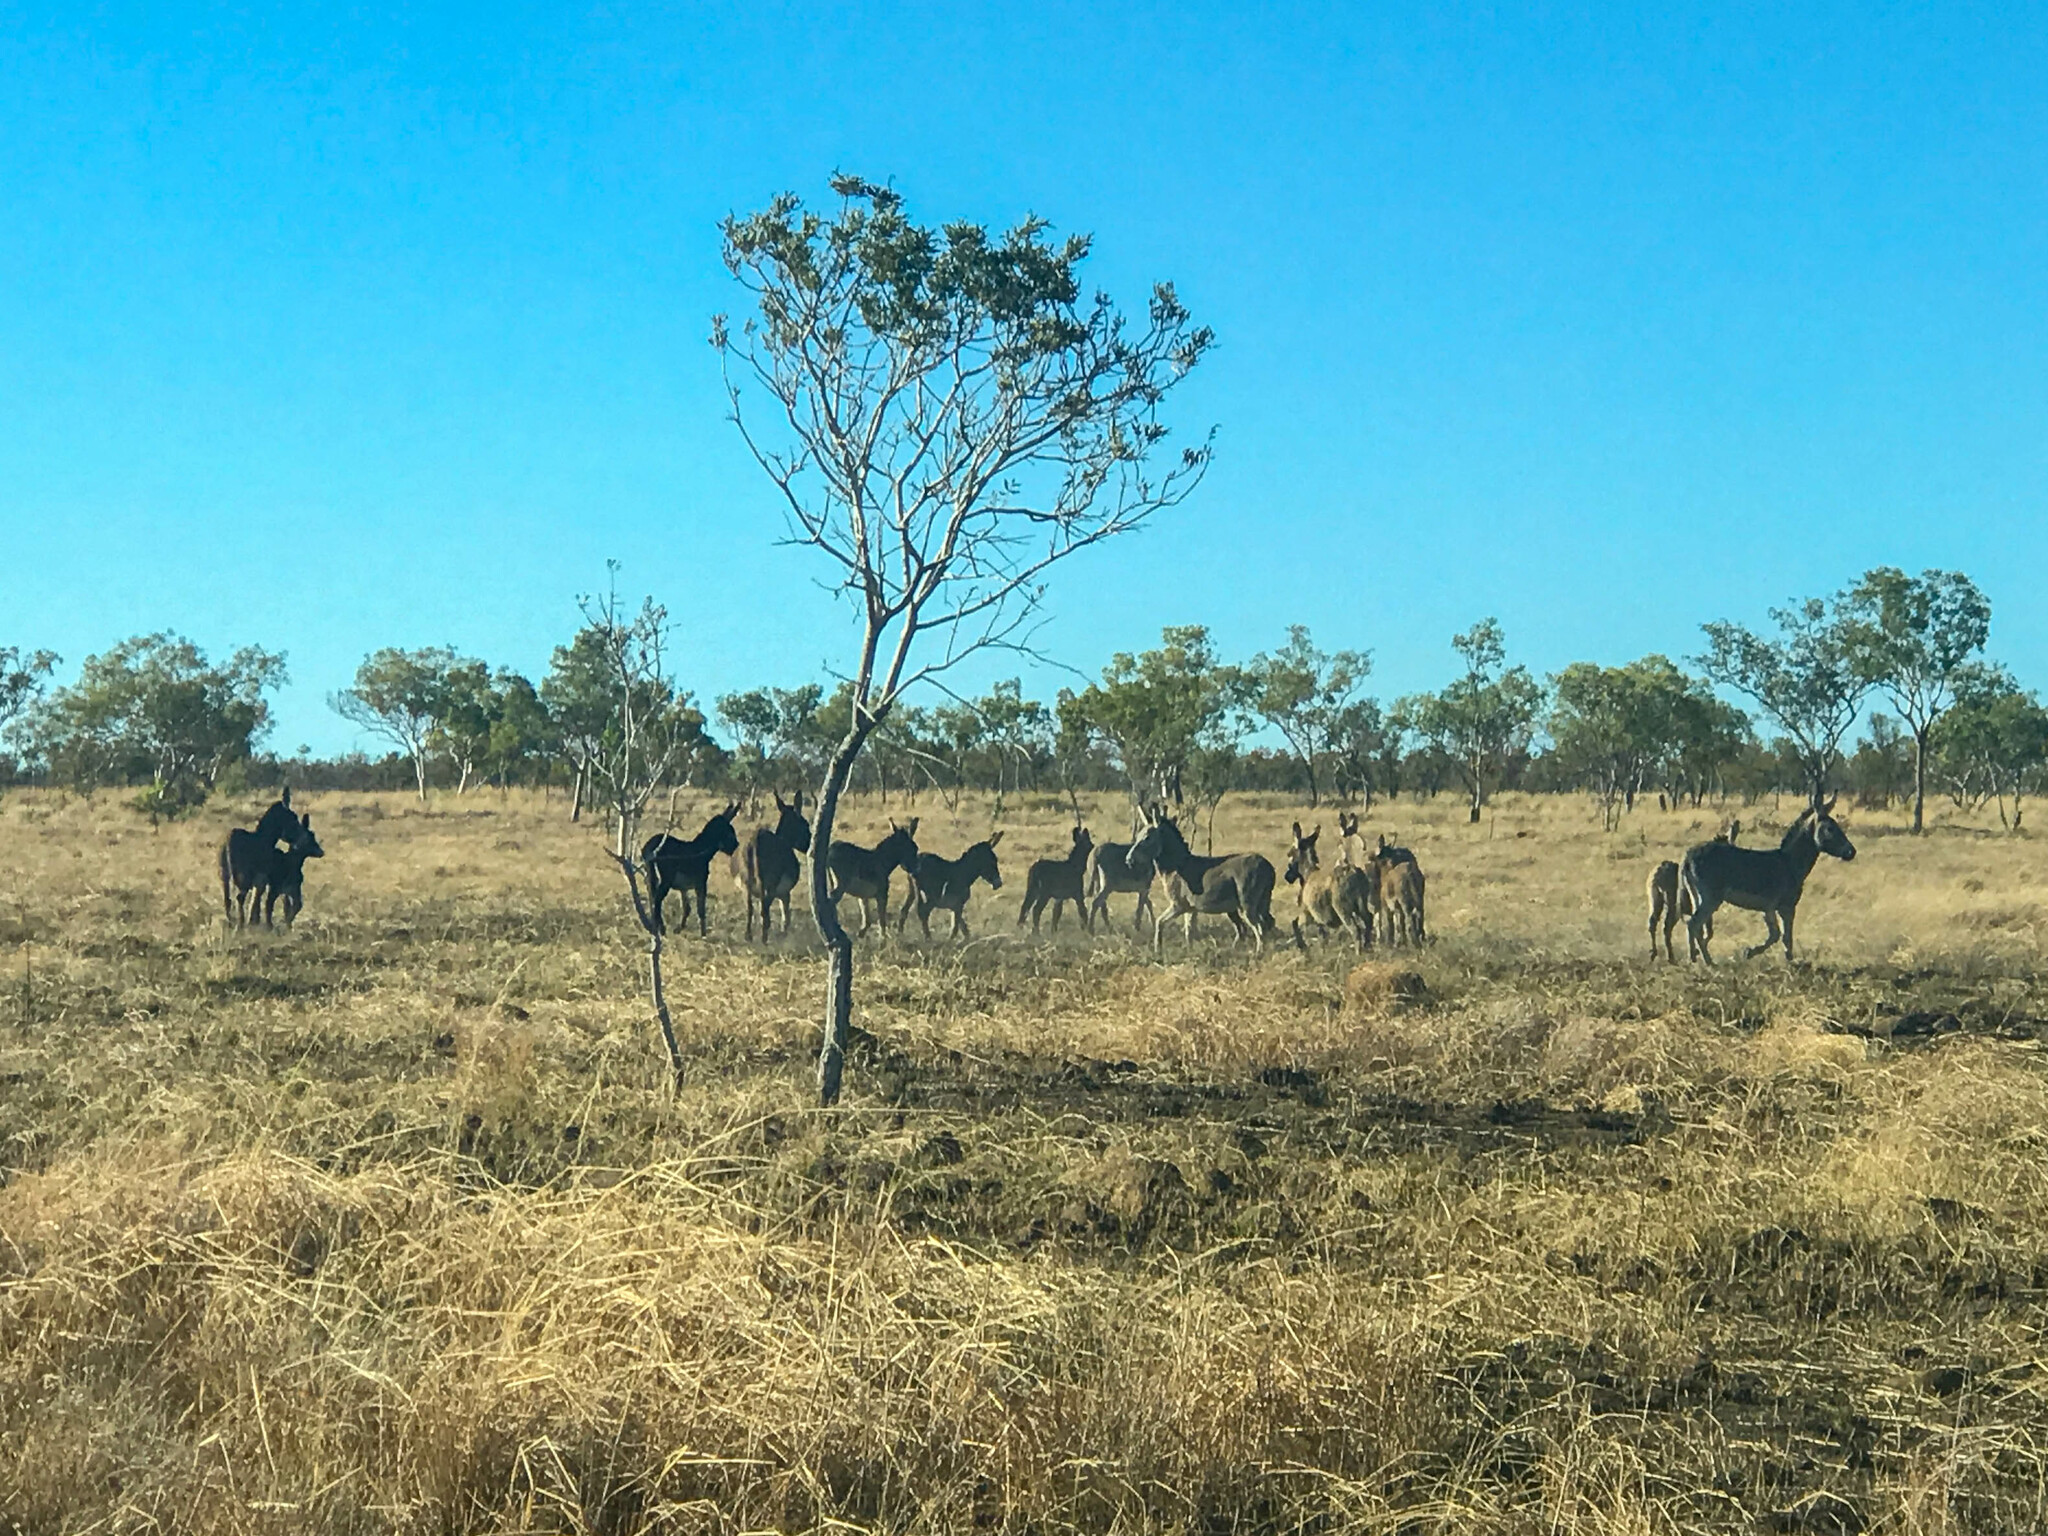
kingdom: Animalia
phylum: Chordata
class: Mammalia
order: Perissodactyla
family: Equidae
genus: Equus
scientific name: Equus asinus
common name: Ass
